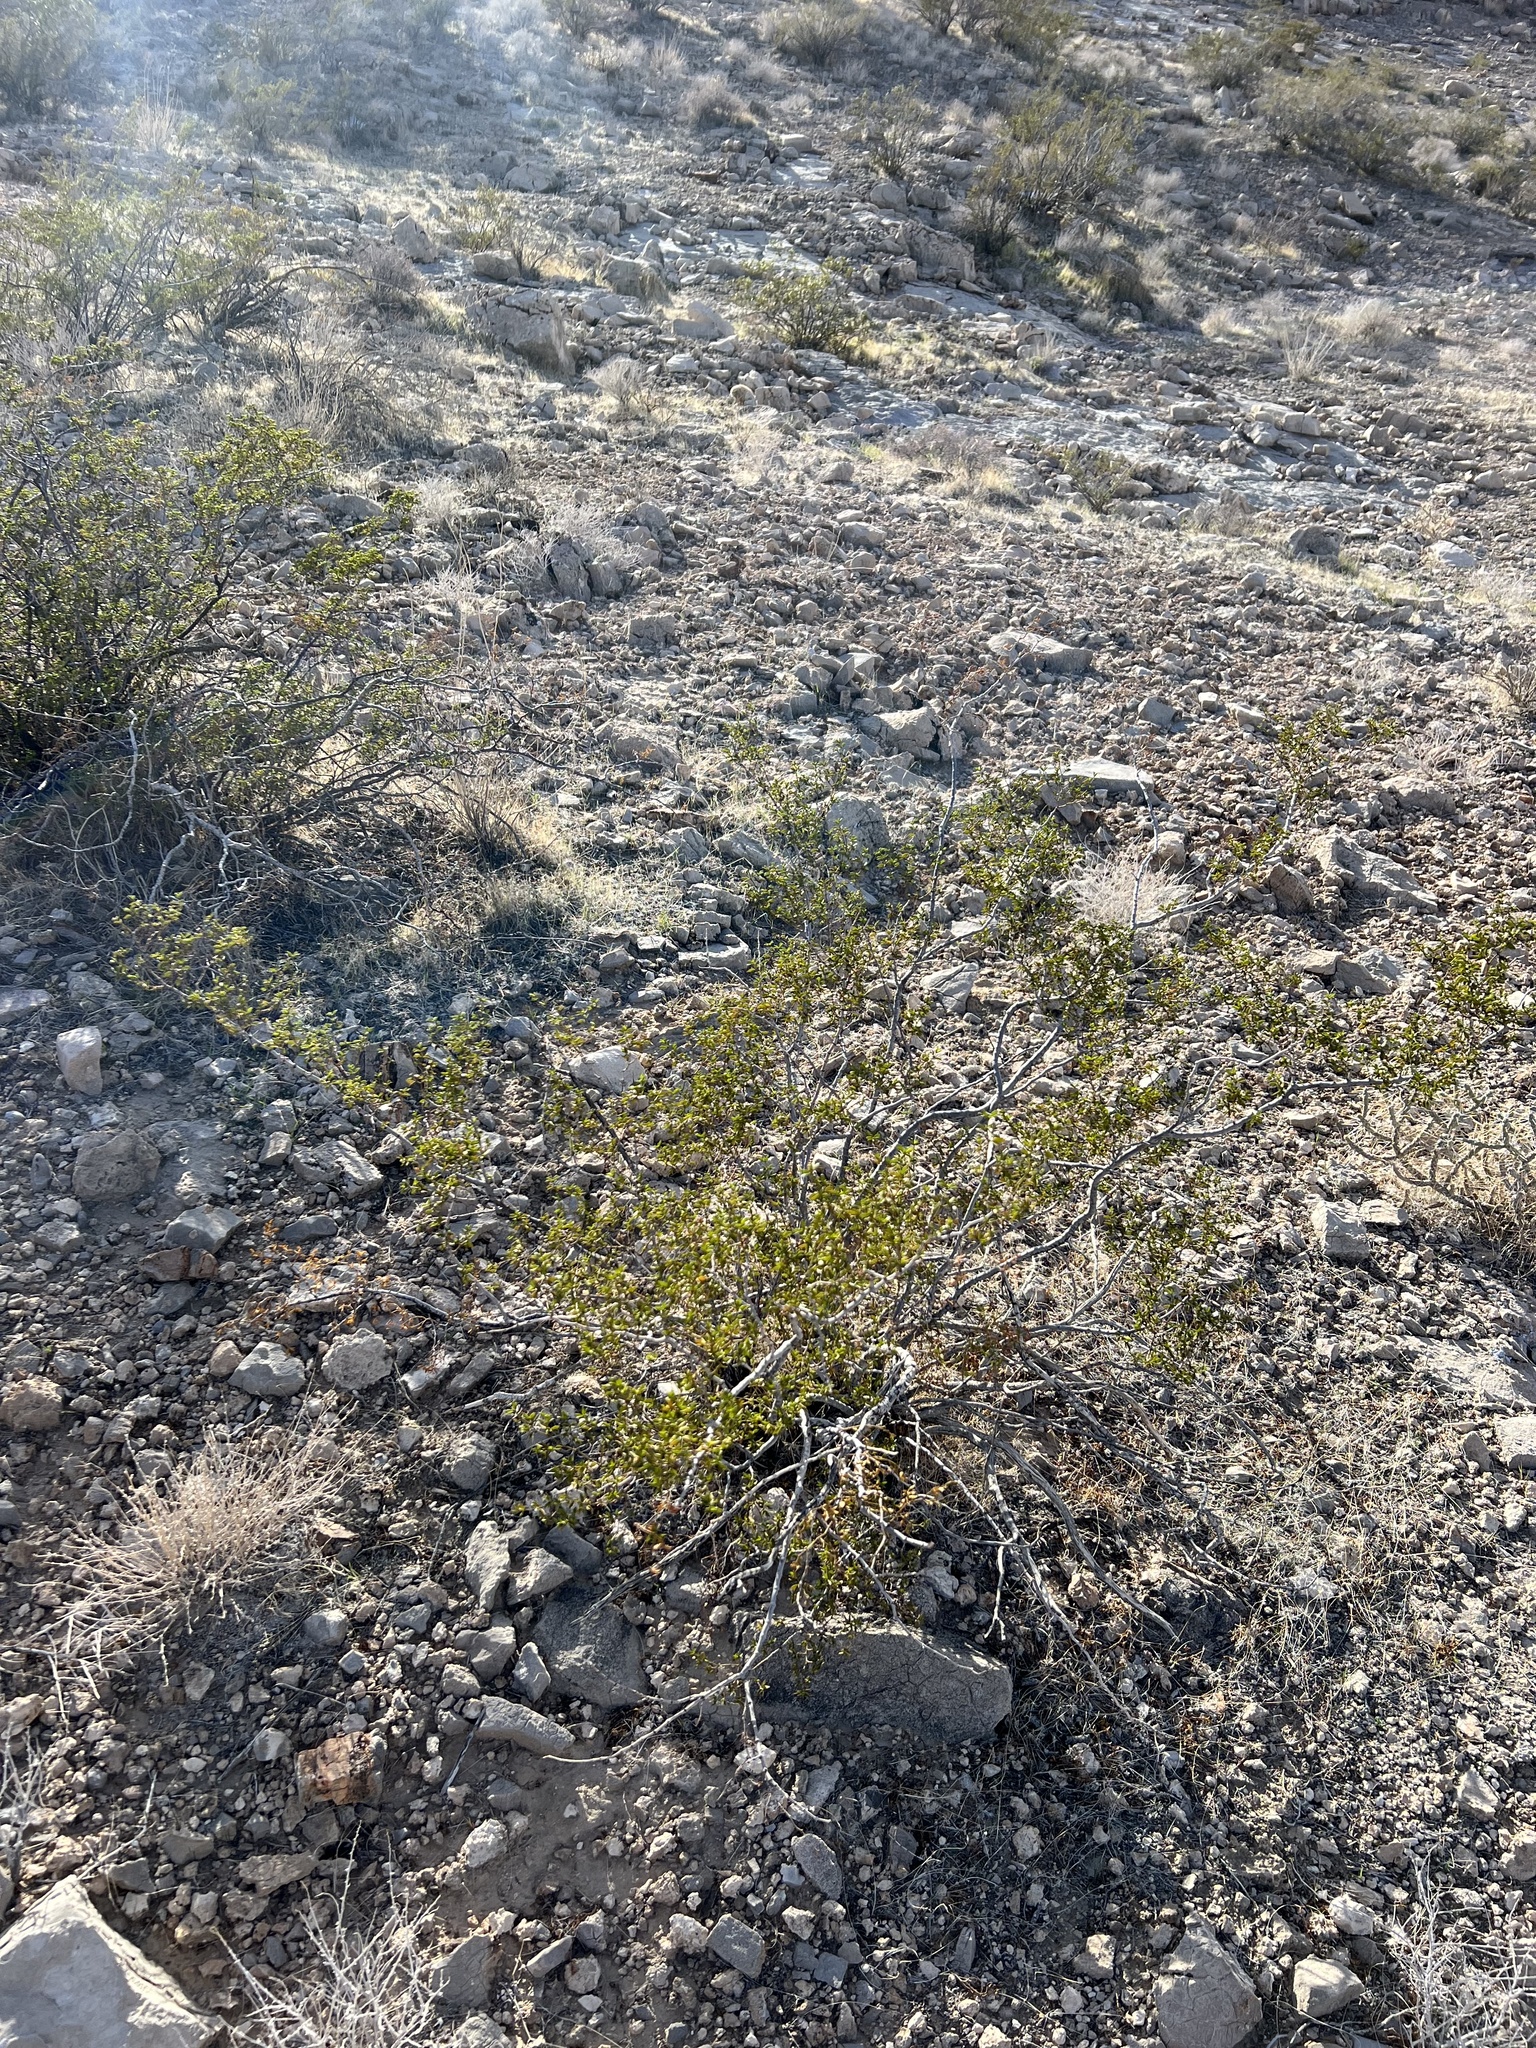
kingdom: Plantae
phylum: Tracheophyta
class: Magnoliopsida
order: Zygophyllales
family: Zygophyllaceae
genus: Larrea
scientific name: Larrea tridentata
